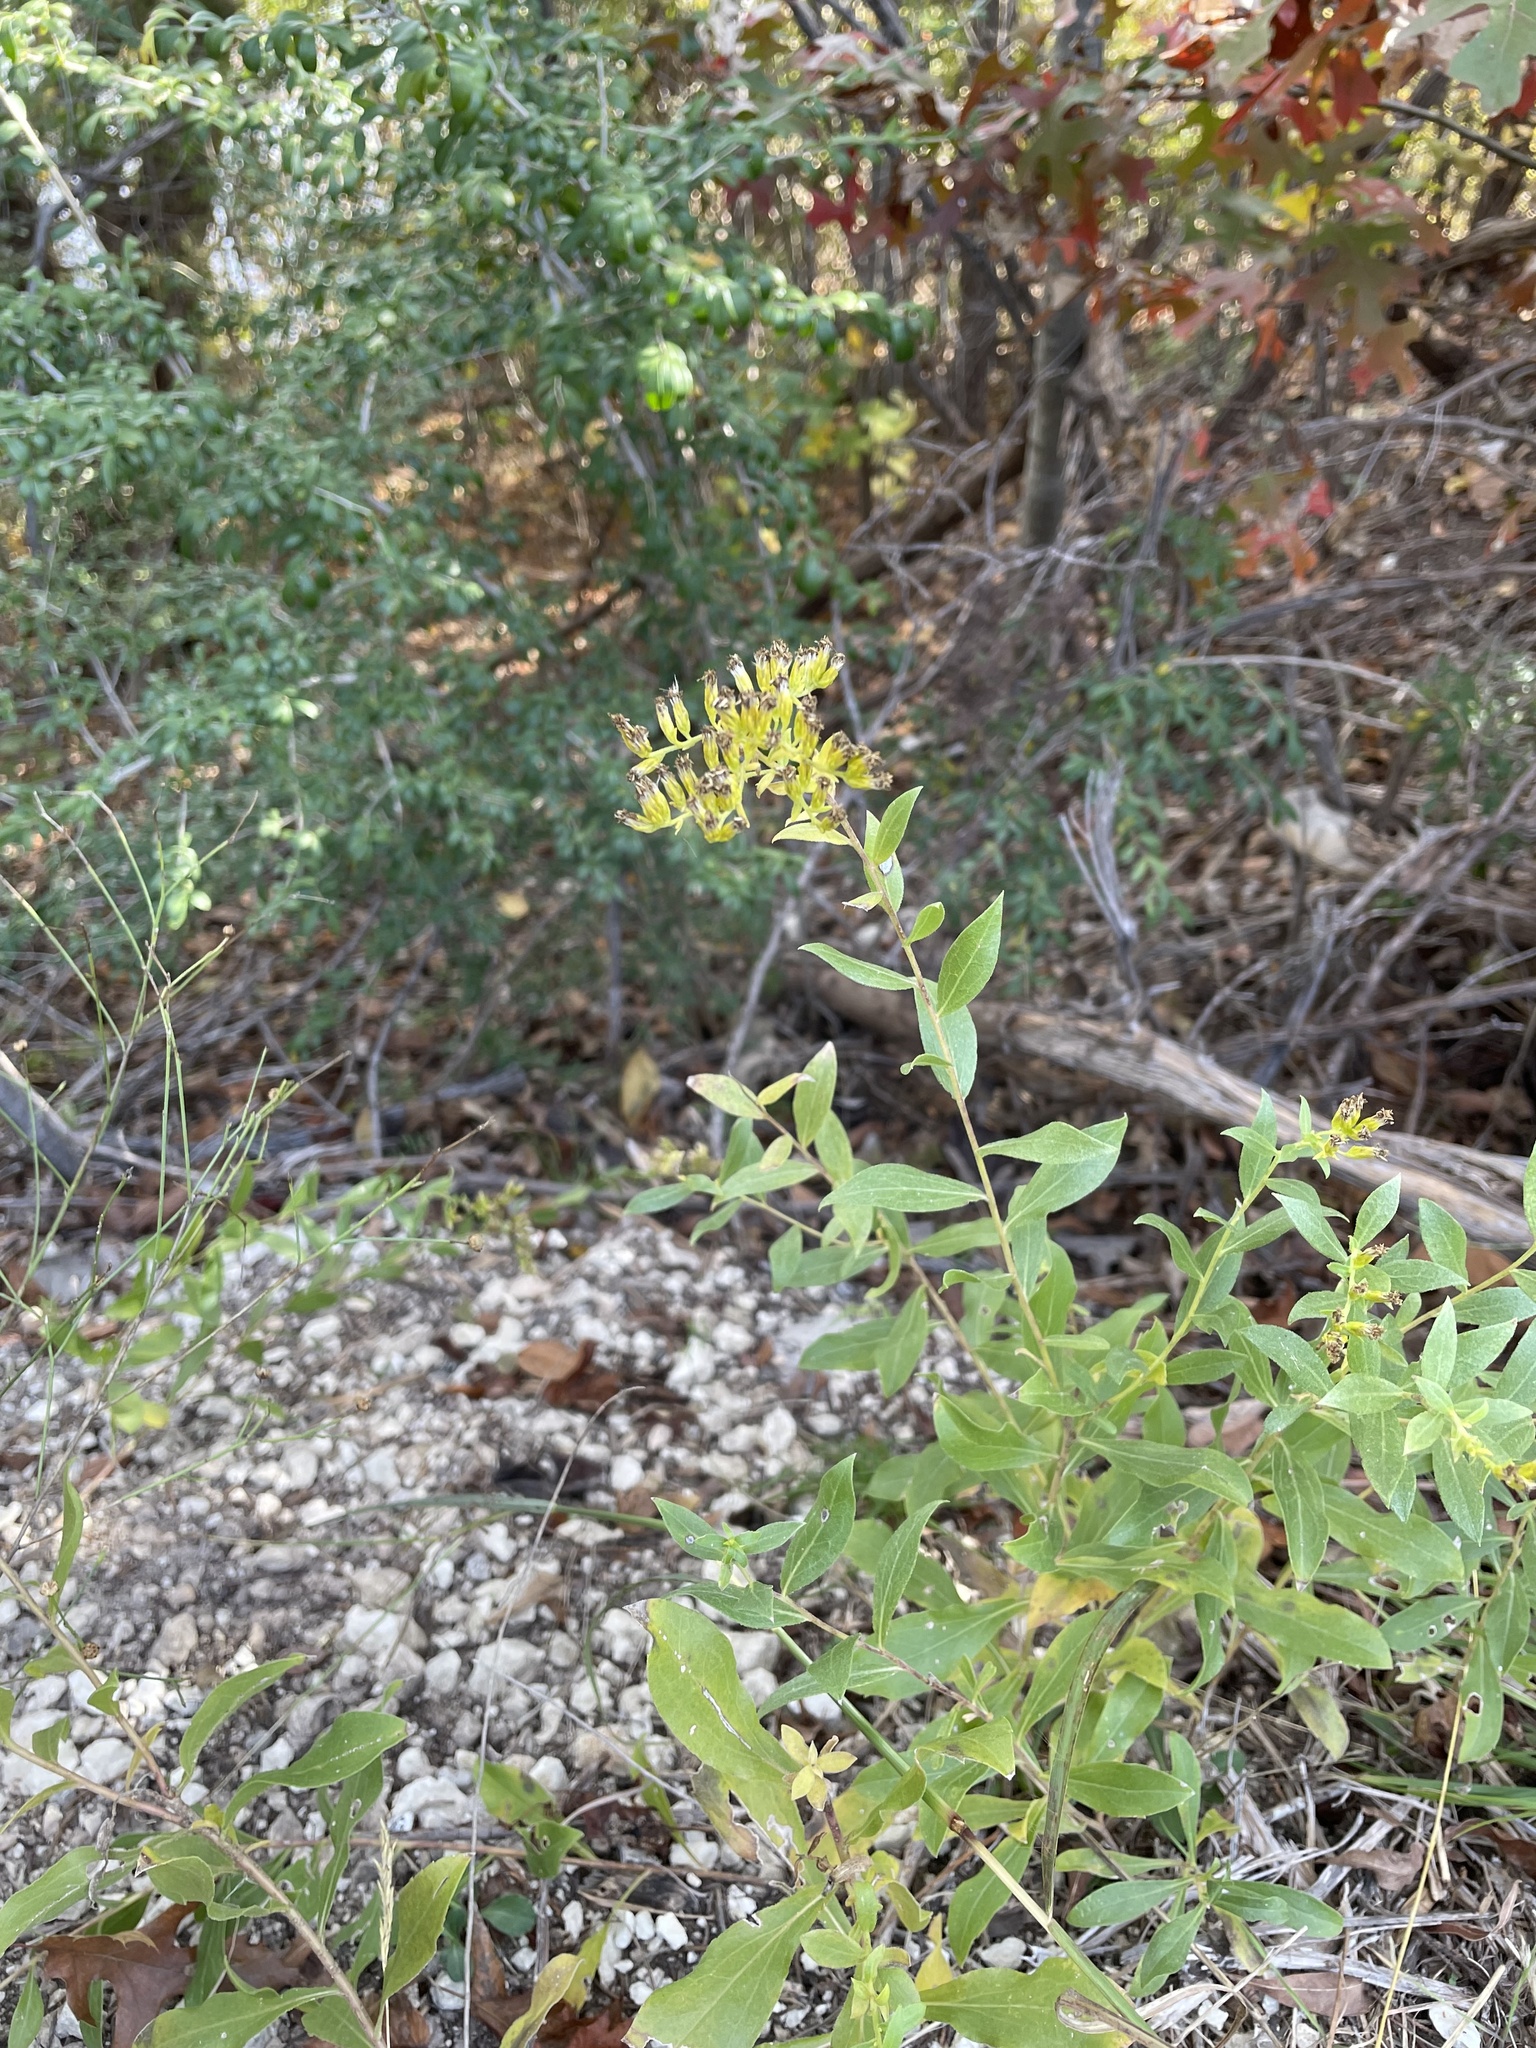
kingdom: Plantae
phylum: Tracheophyta
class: Magnoliopsida
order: Asterales
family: Asteraceae
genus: Solidago
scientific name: Solidago radula
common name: Western rough goldenrod
